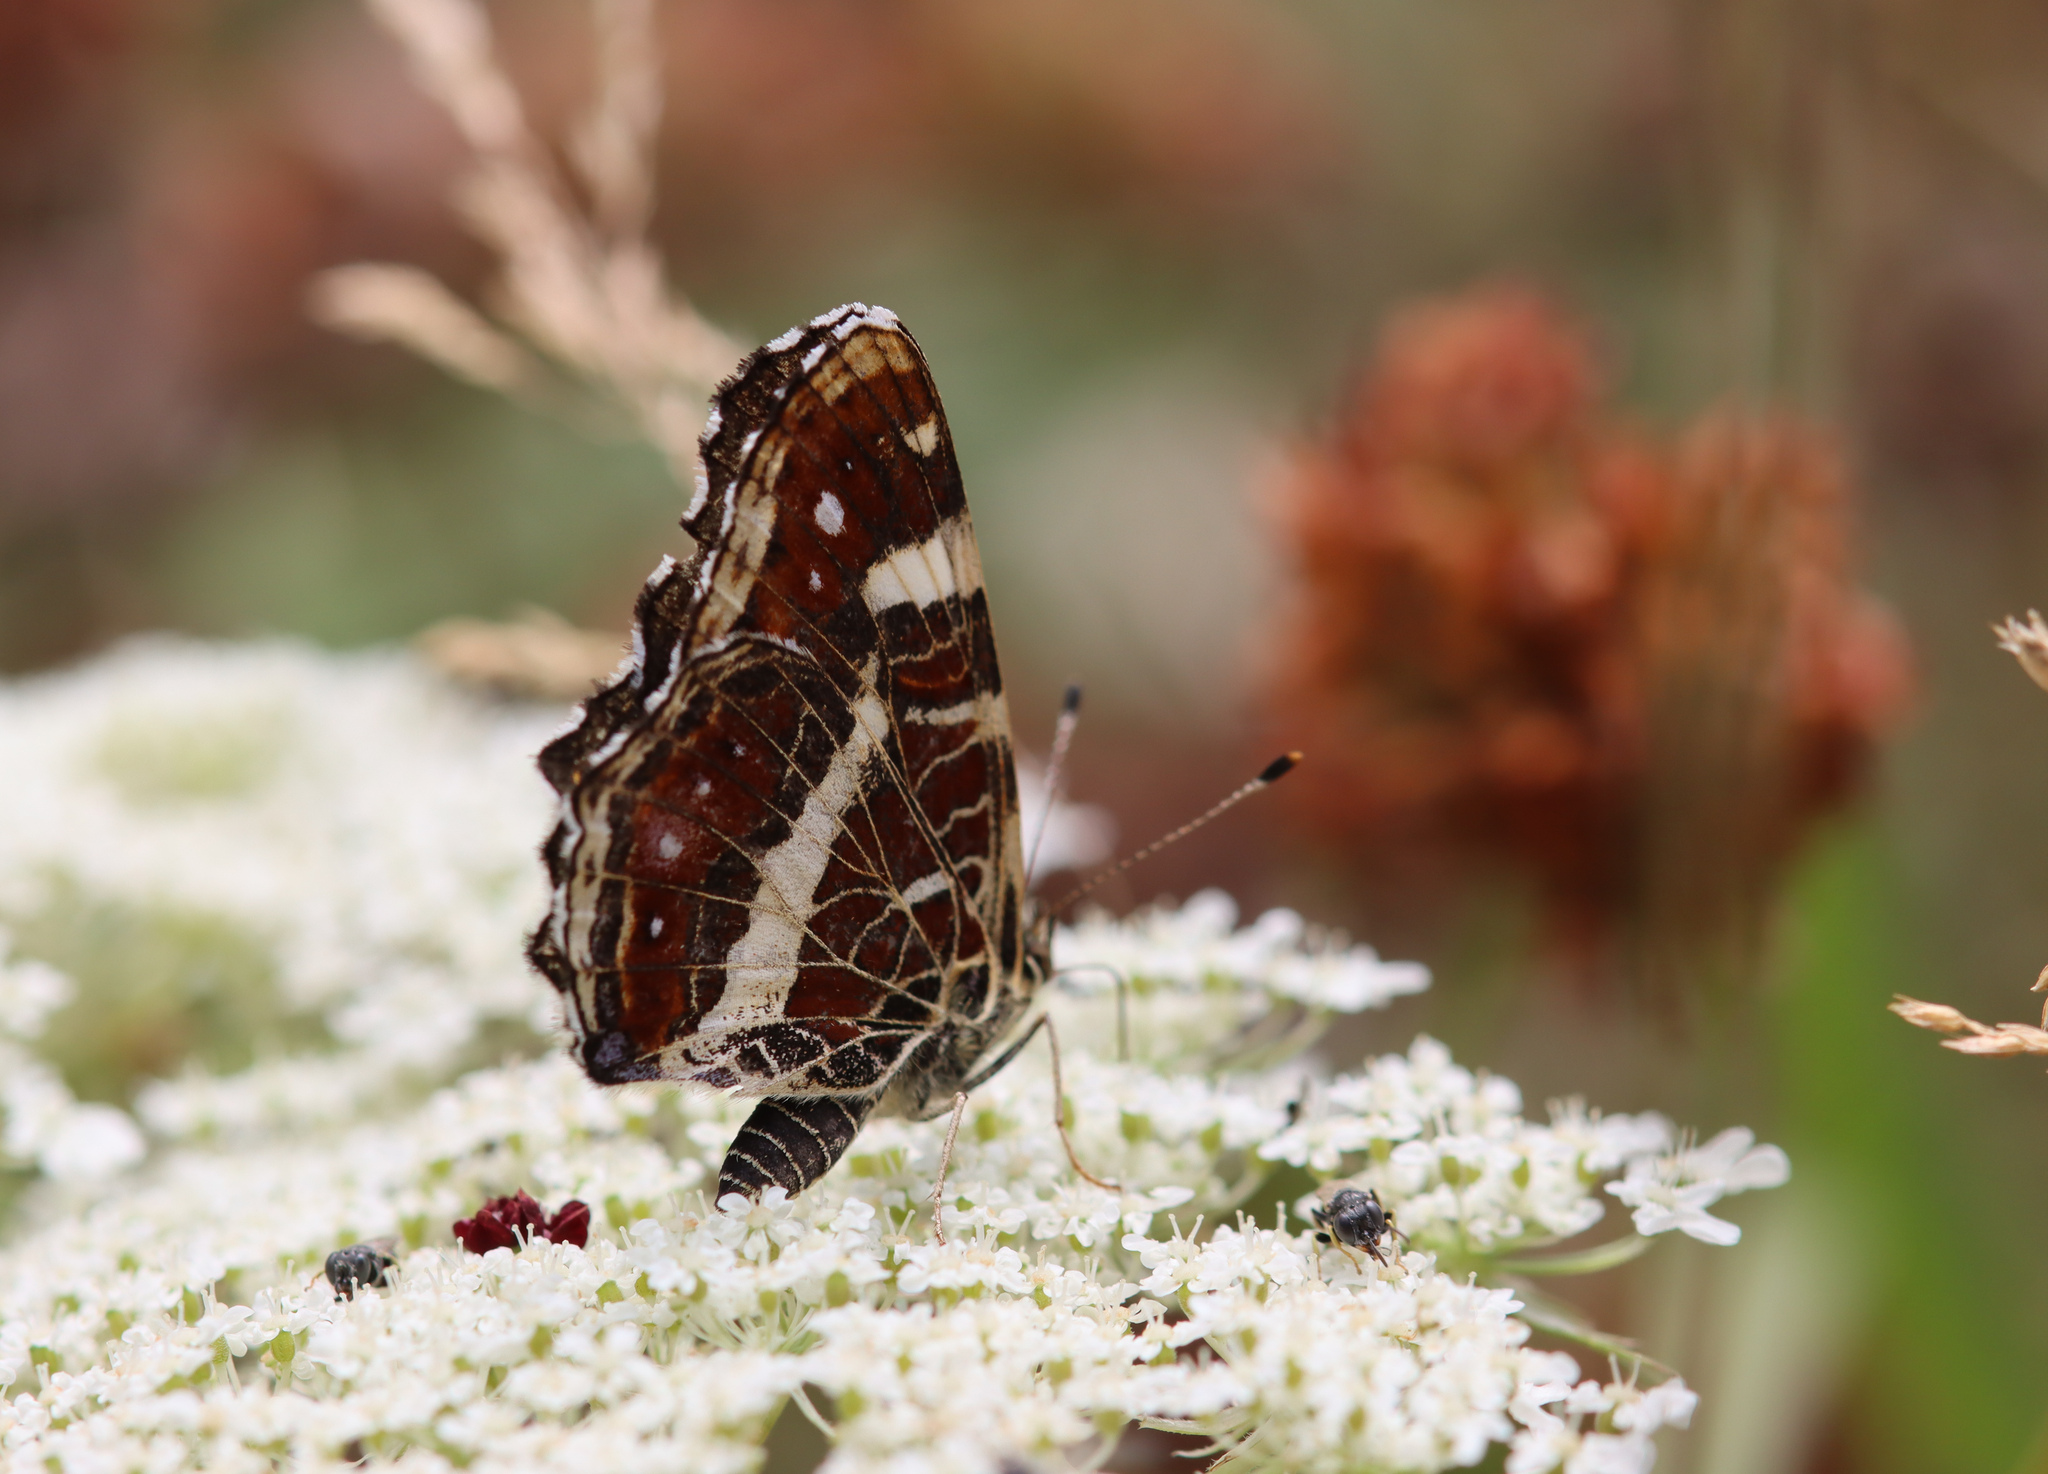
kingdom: Animalia
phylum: Arthropoda
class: Insecta
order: Lepidoptera
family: Nymphalidae
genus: Araschnia
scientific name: Araschnia levana
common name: Map butterfly
